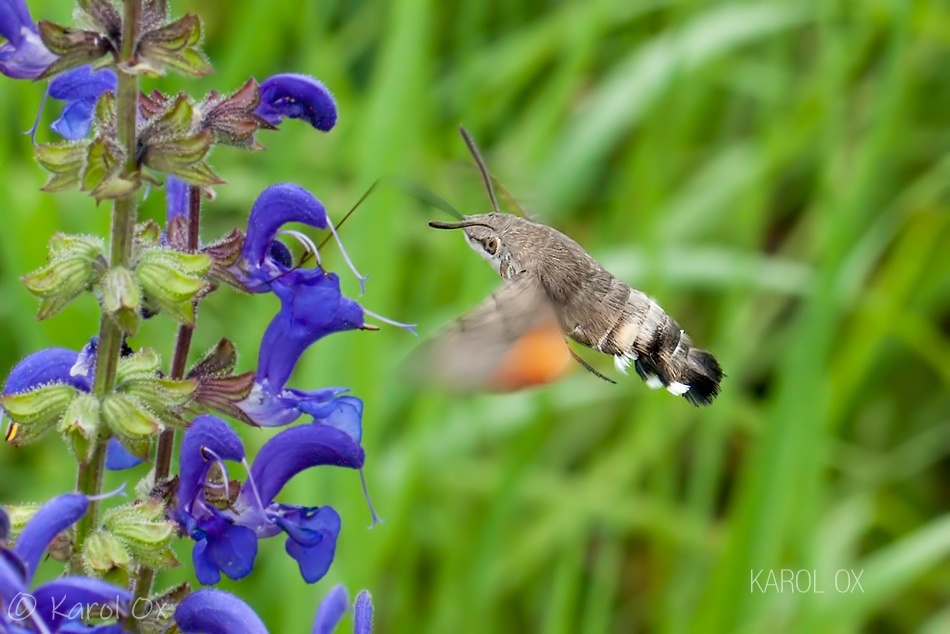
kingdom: Animalia
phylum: Arthropoda
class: Insecta
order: Lepidoptera
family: Sphingidae
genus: Macroglossum
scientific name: Macroglossum stellatarum
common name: Humming-bird hawk-moth
